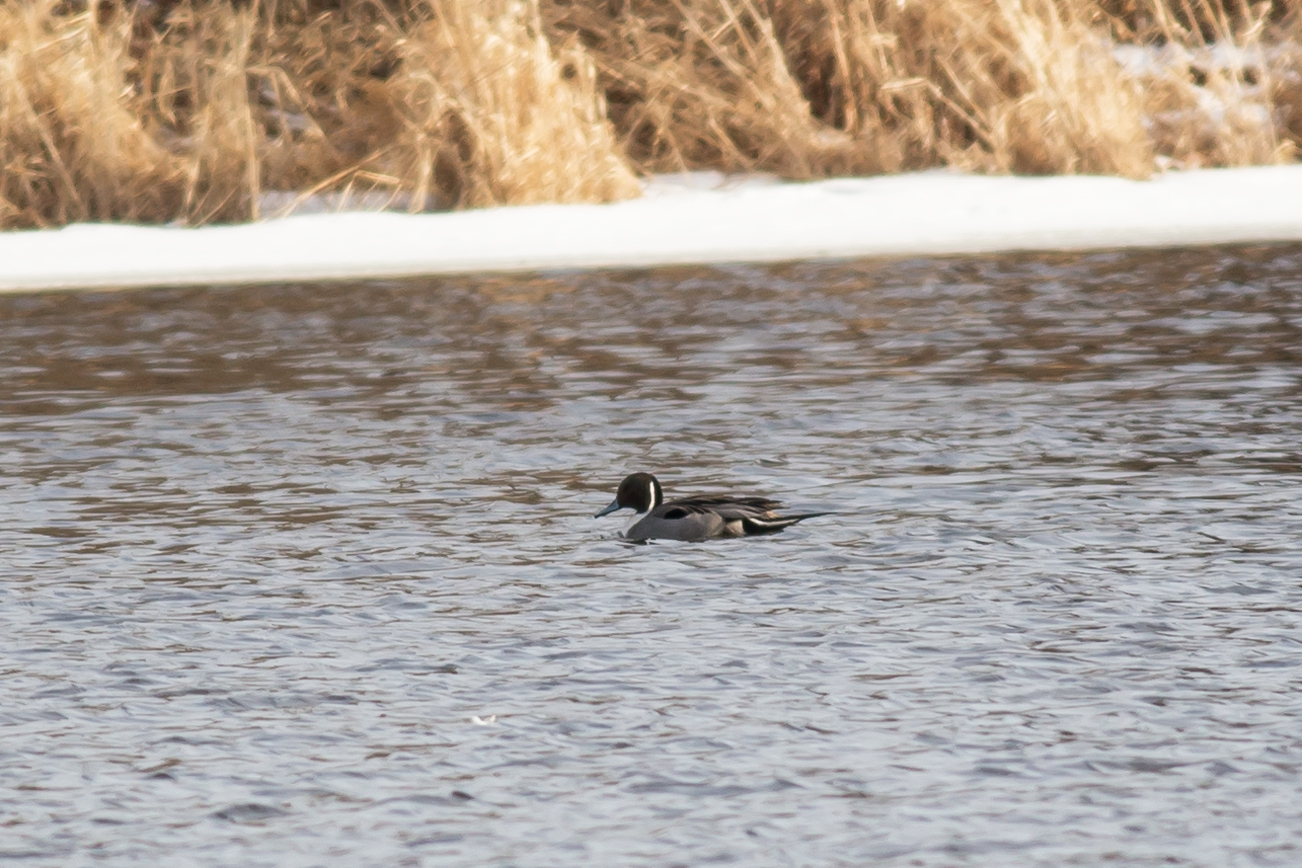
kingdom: Animalia
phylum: Chordata
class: Aves
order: Anseriformes
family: Anatidae
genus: Anas
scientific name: Anas acuta
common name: Northern pintail
